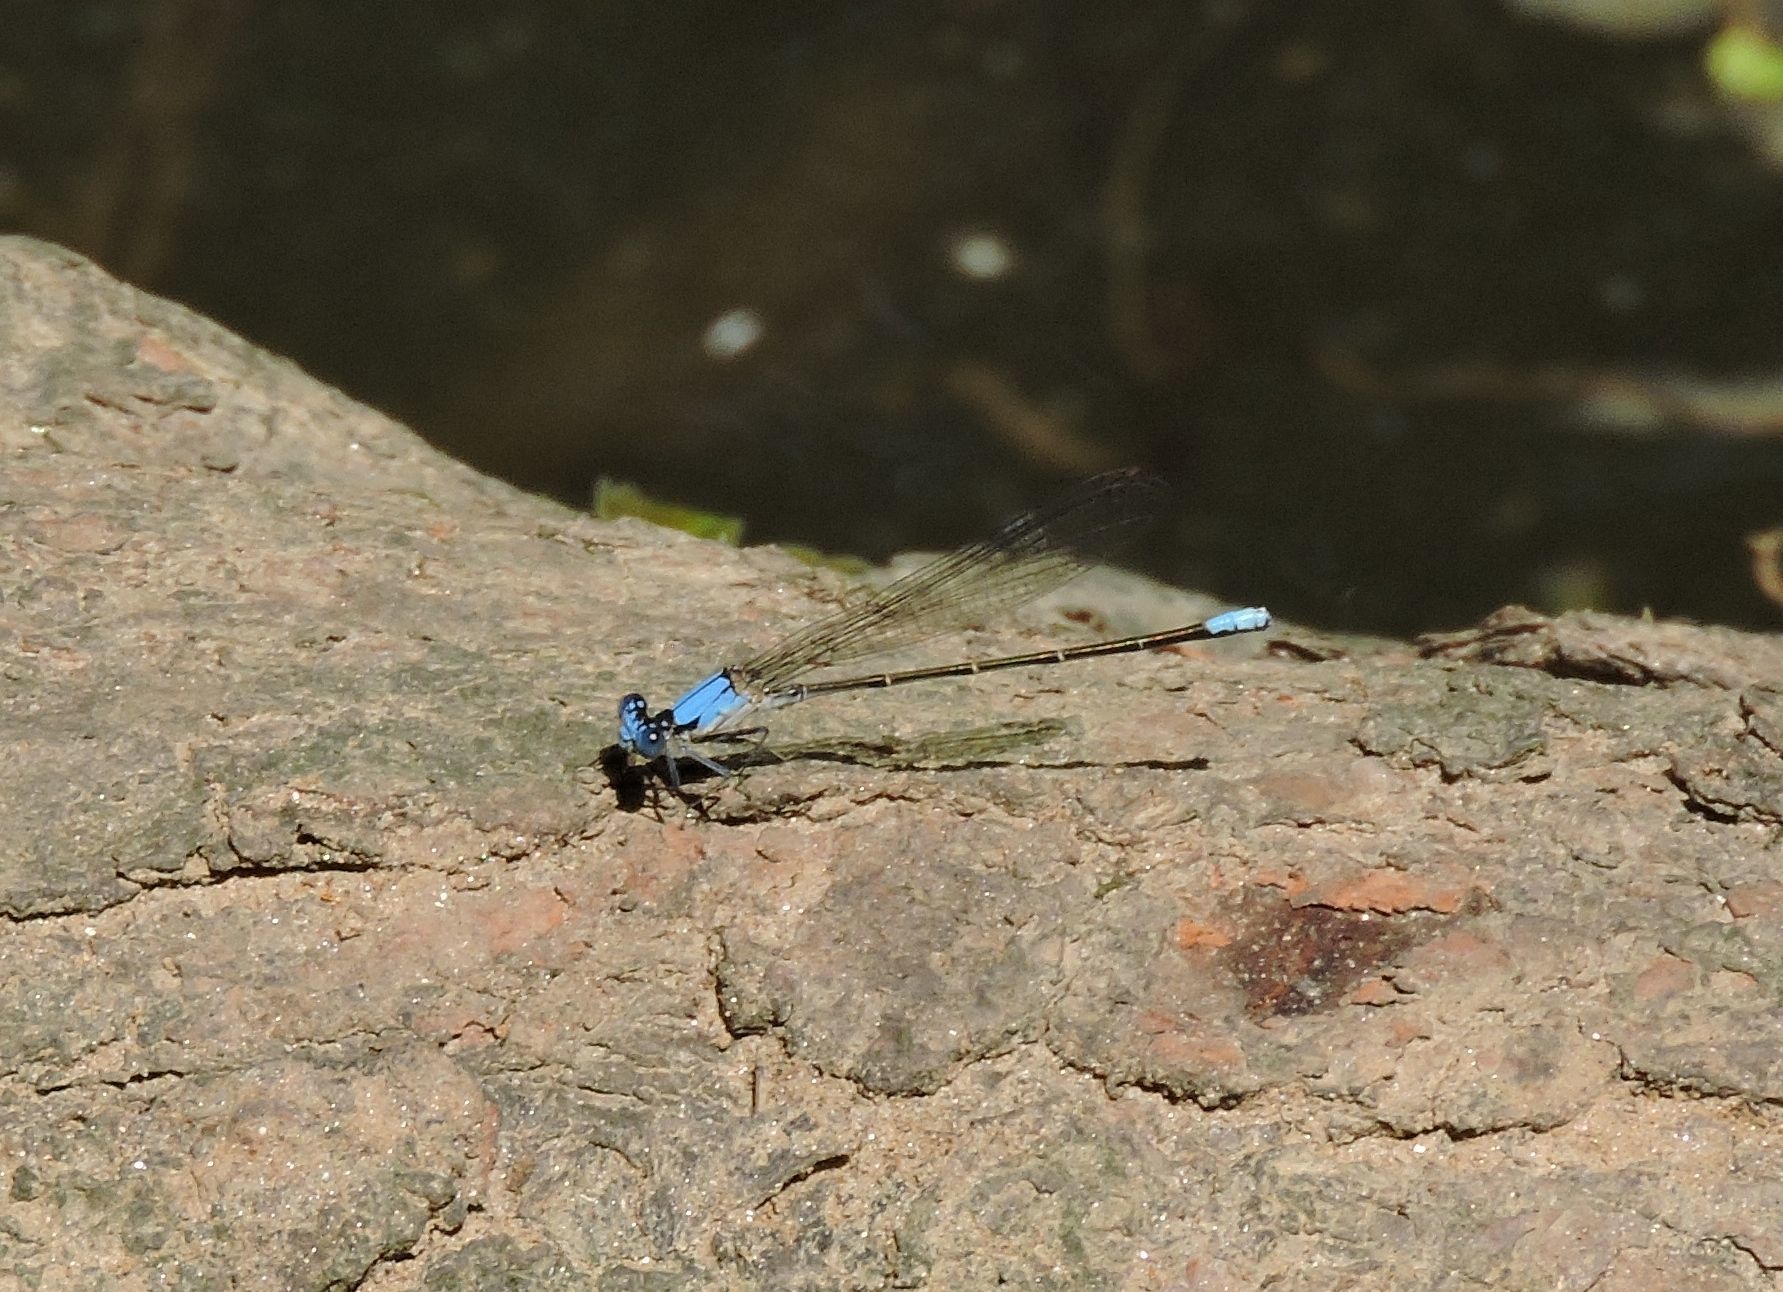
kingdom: Animalia
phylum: Arthropoda
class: Insecta
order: Odonata
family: Coenagrionidae
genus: Argia
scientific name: Argia apicalis
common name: Blue-fronted dancer
